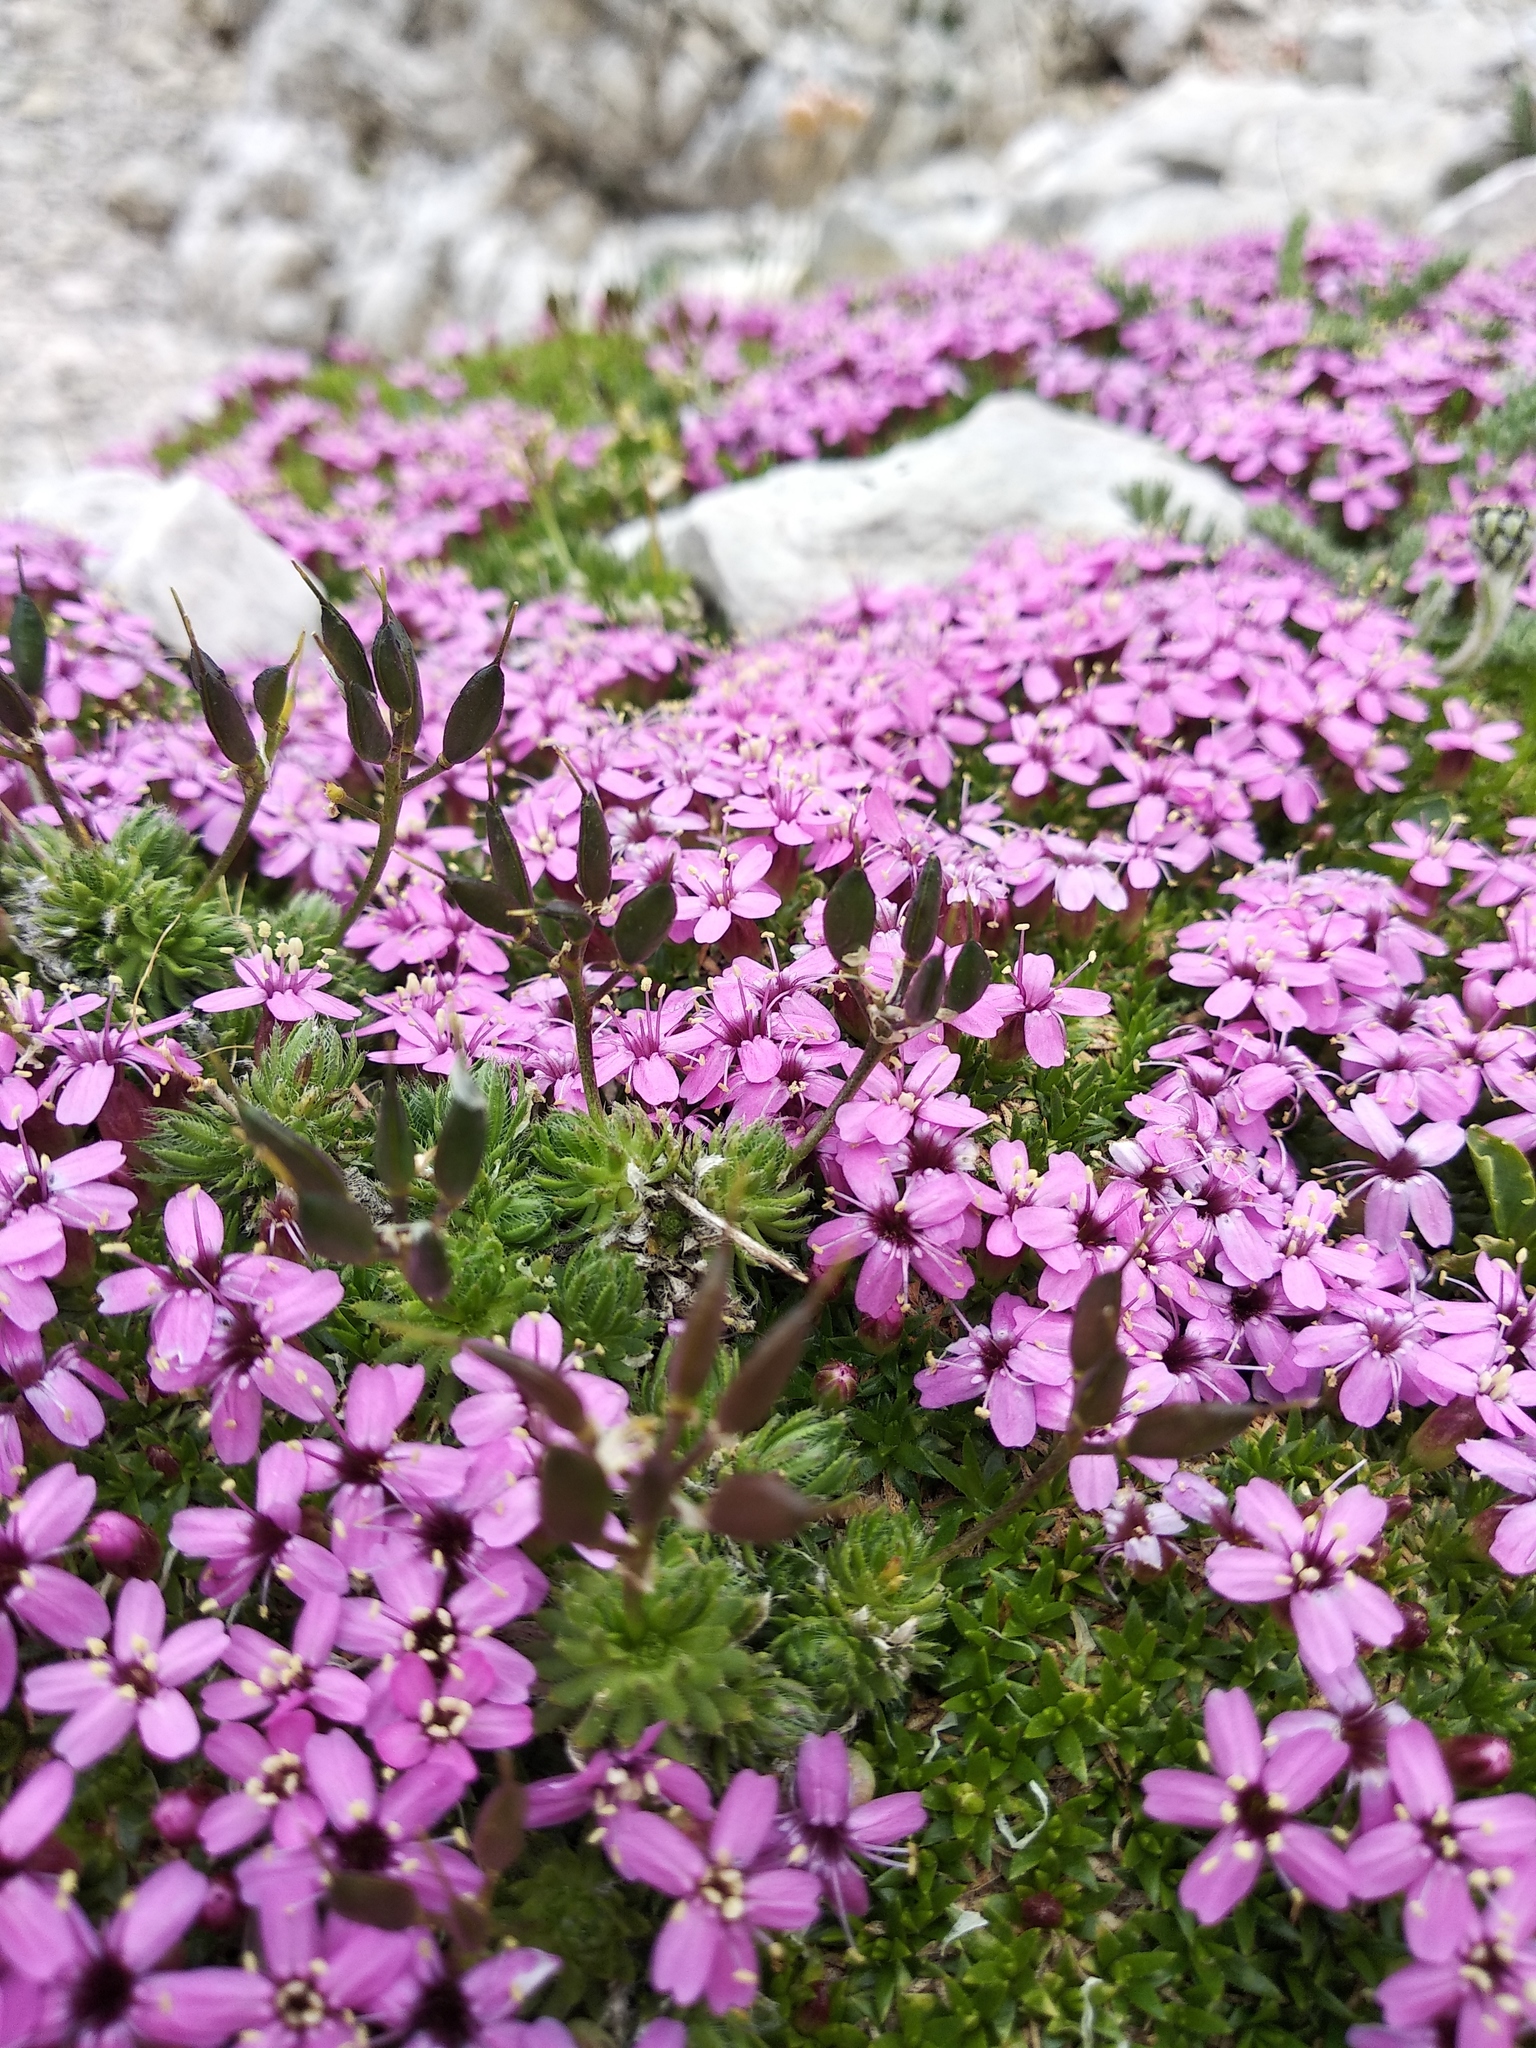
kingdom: Plantae
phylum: Tracheophyta
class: Magnoliopsida
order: Caryophyllales
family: Caryophyllaceae
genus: Silene
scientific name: Silene acaulis
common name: Moss campion
